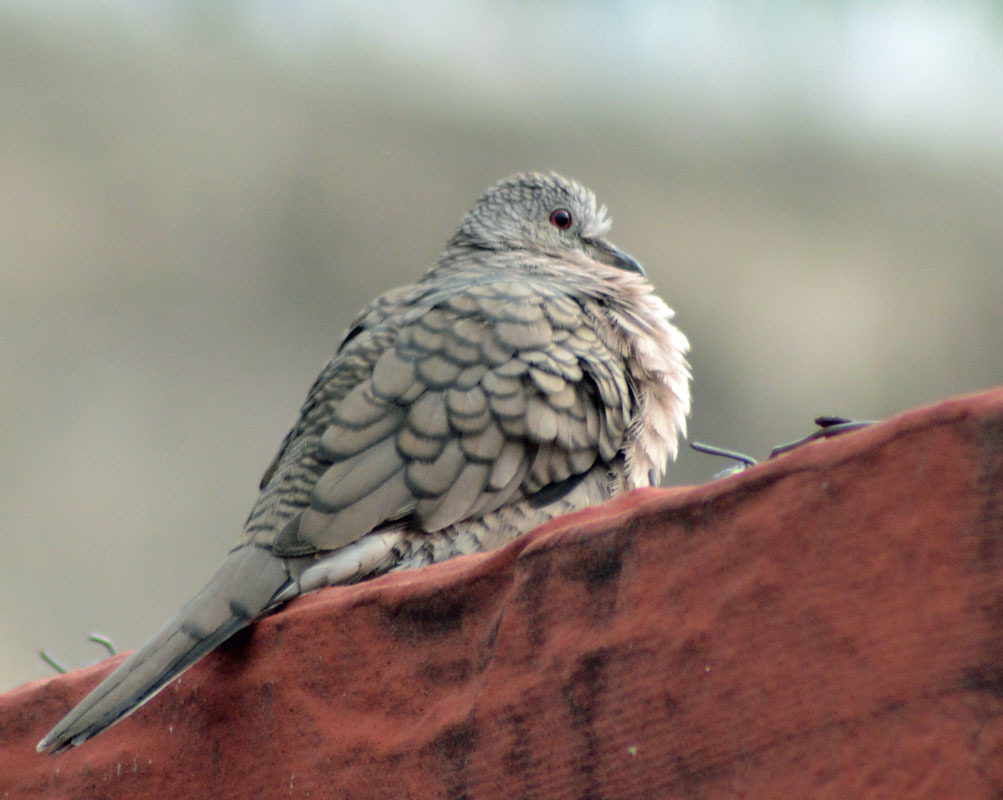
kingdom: Animalia
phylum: Chordata
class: Aves
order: Columbiformes
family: Columbidae
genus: Columbina
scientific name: Columbina inca
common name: Inca dove
